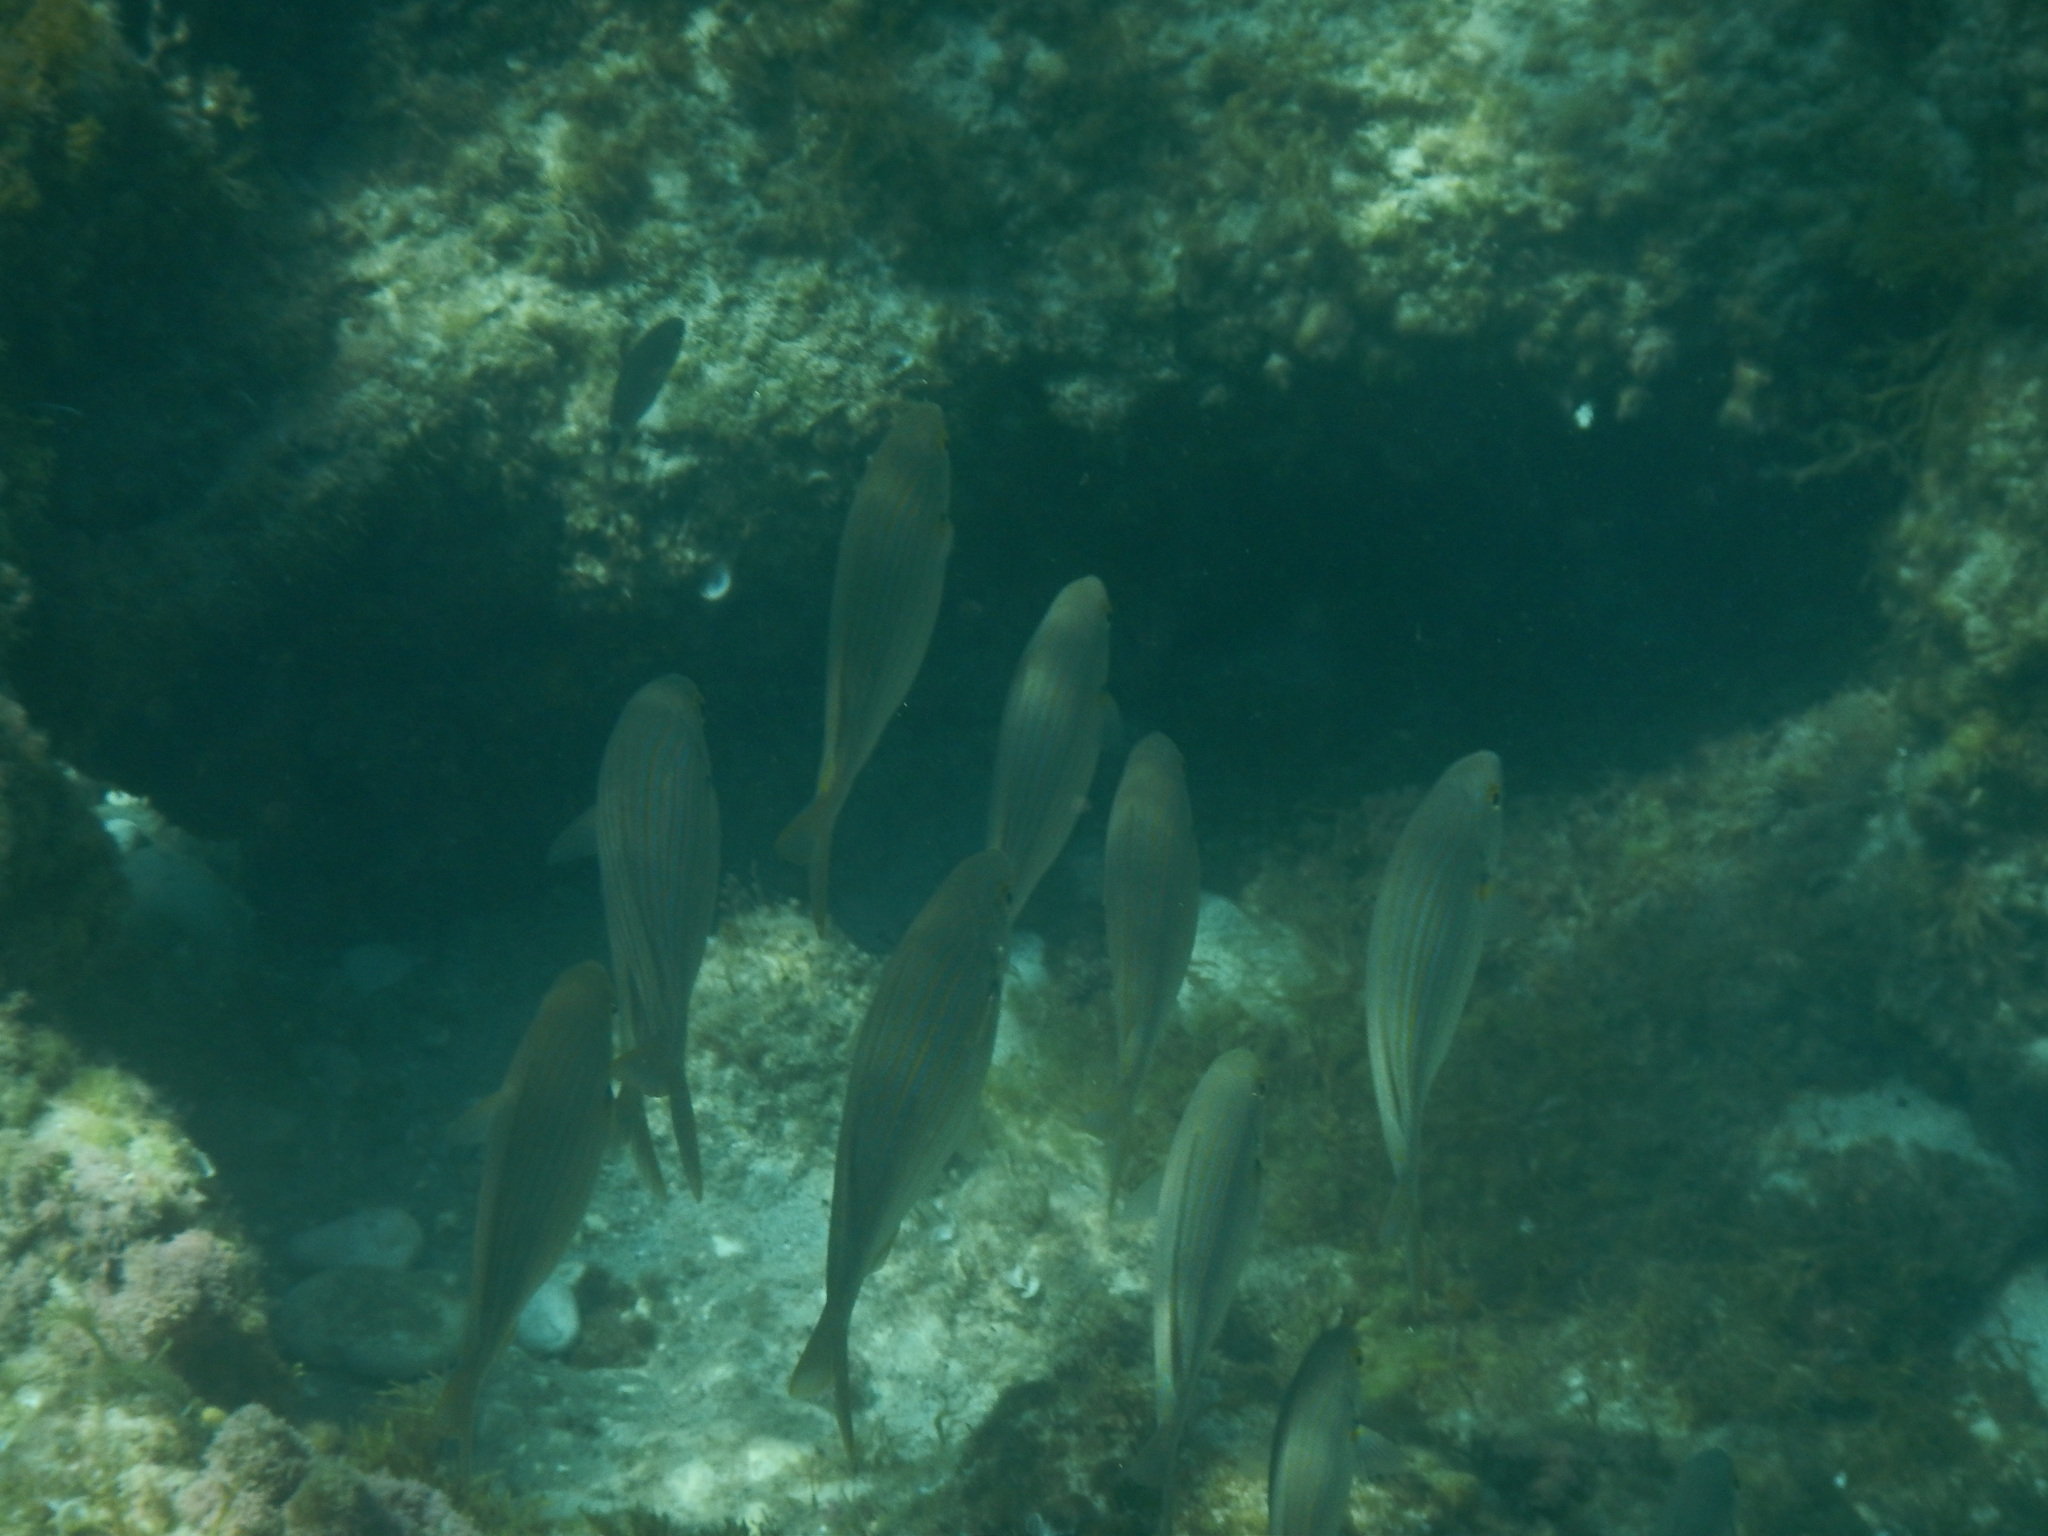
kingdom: Animalia
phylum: Chordata
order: Perciformes
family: Sparidae
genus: Sarpa
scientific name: Sarpa salpa
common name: Salema
